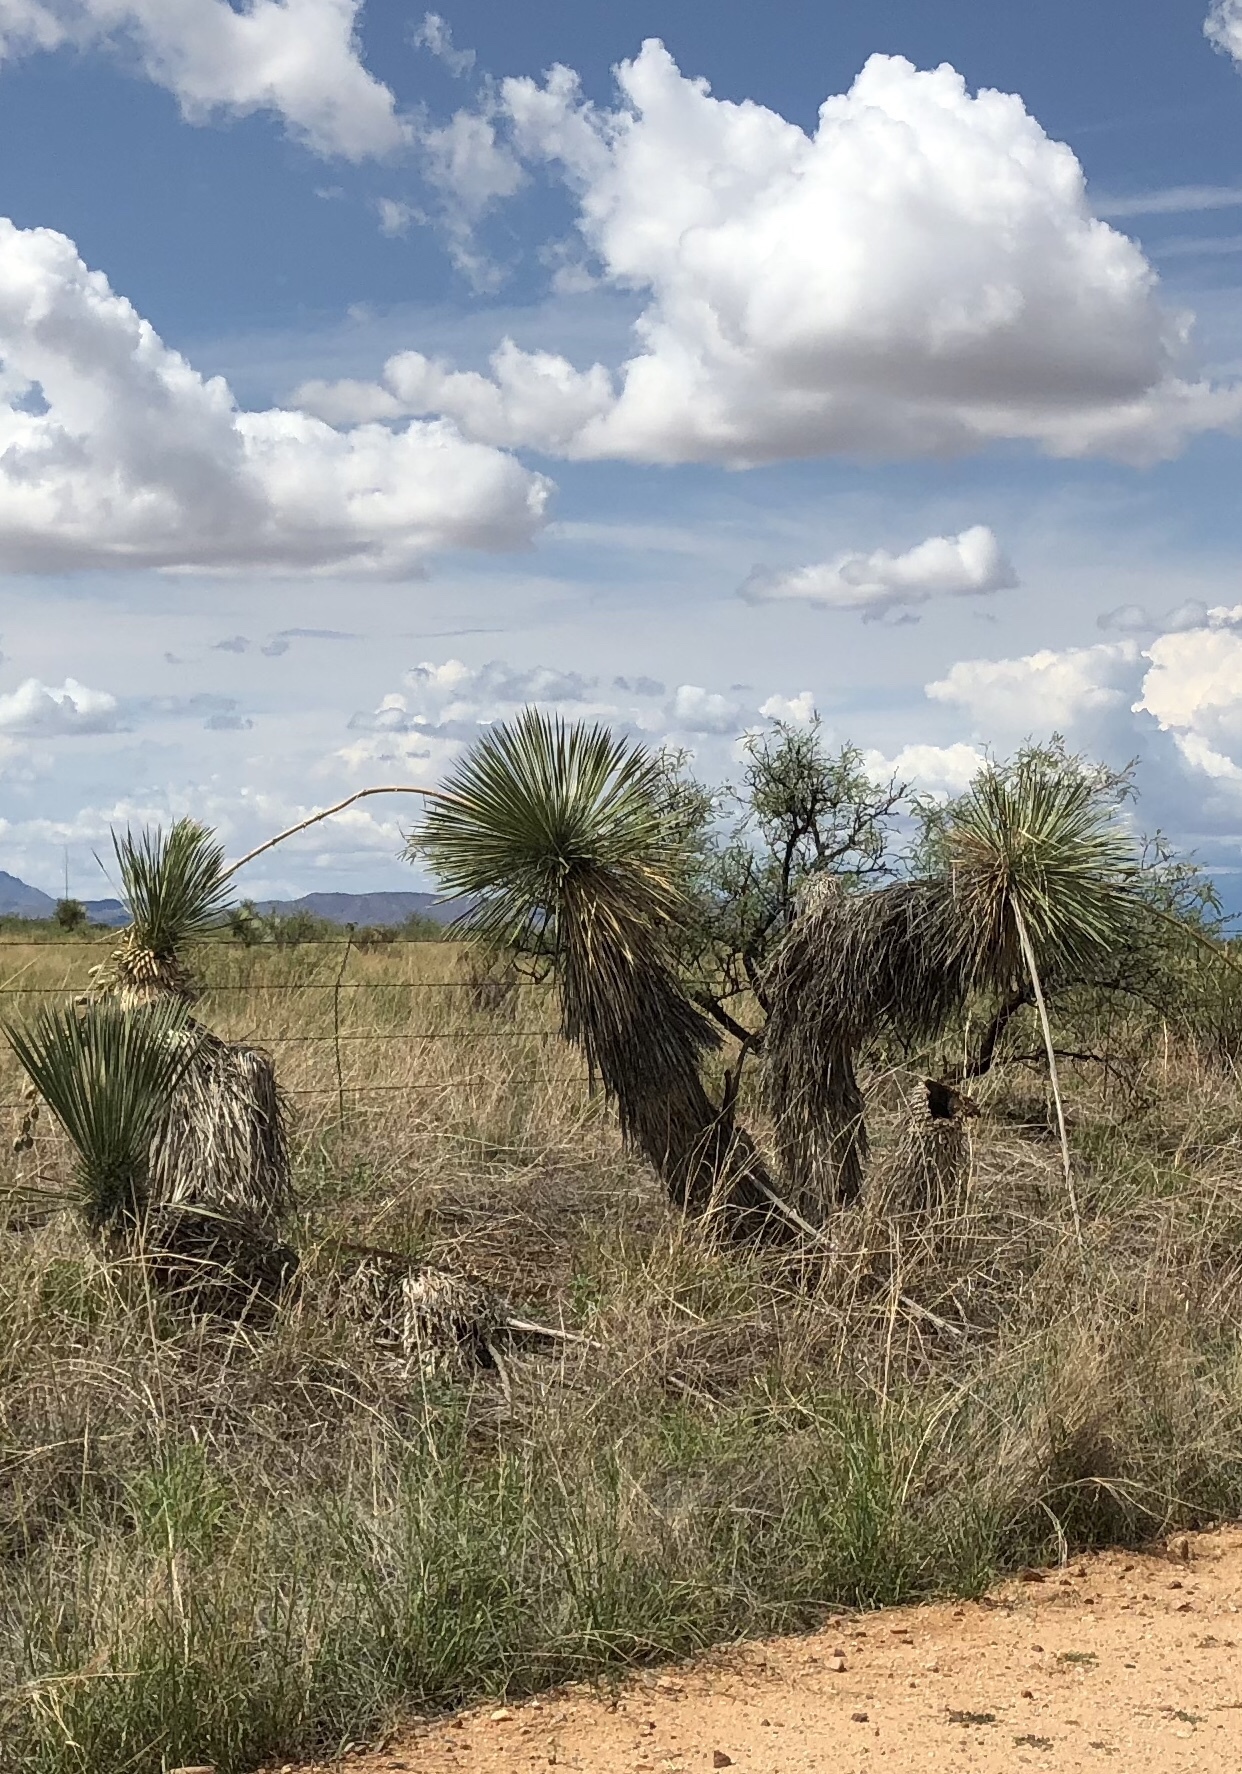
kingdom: Plantae
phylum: Tracheophyta
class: Liliopsida
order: Asparagales
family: Asparagaceae
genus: Yucca
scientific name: Yucca elata
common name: Palmella
